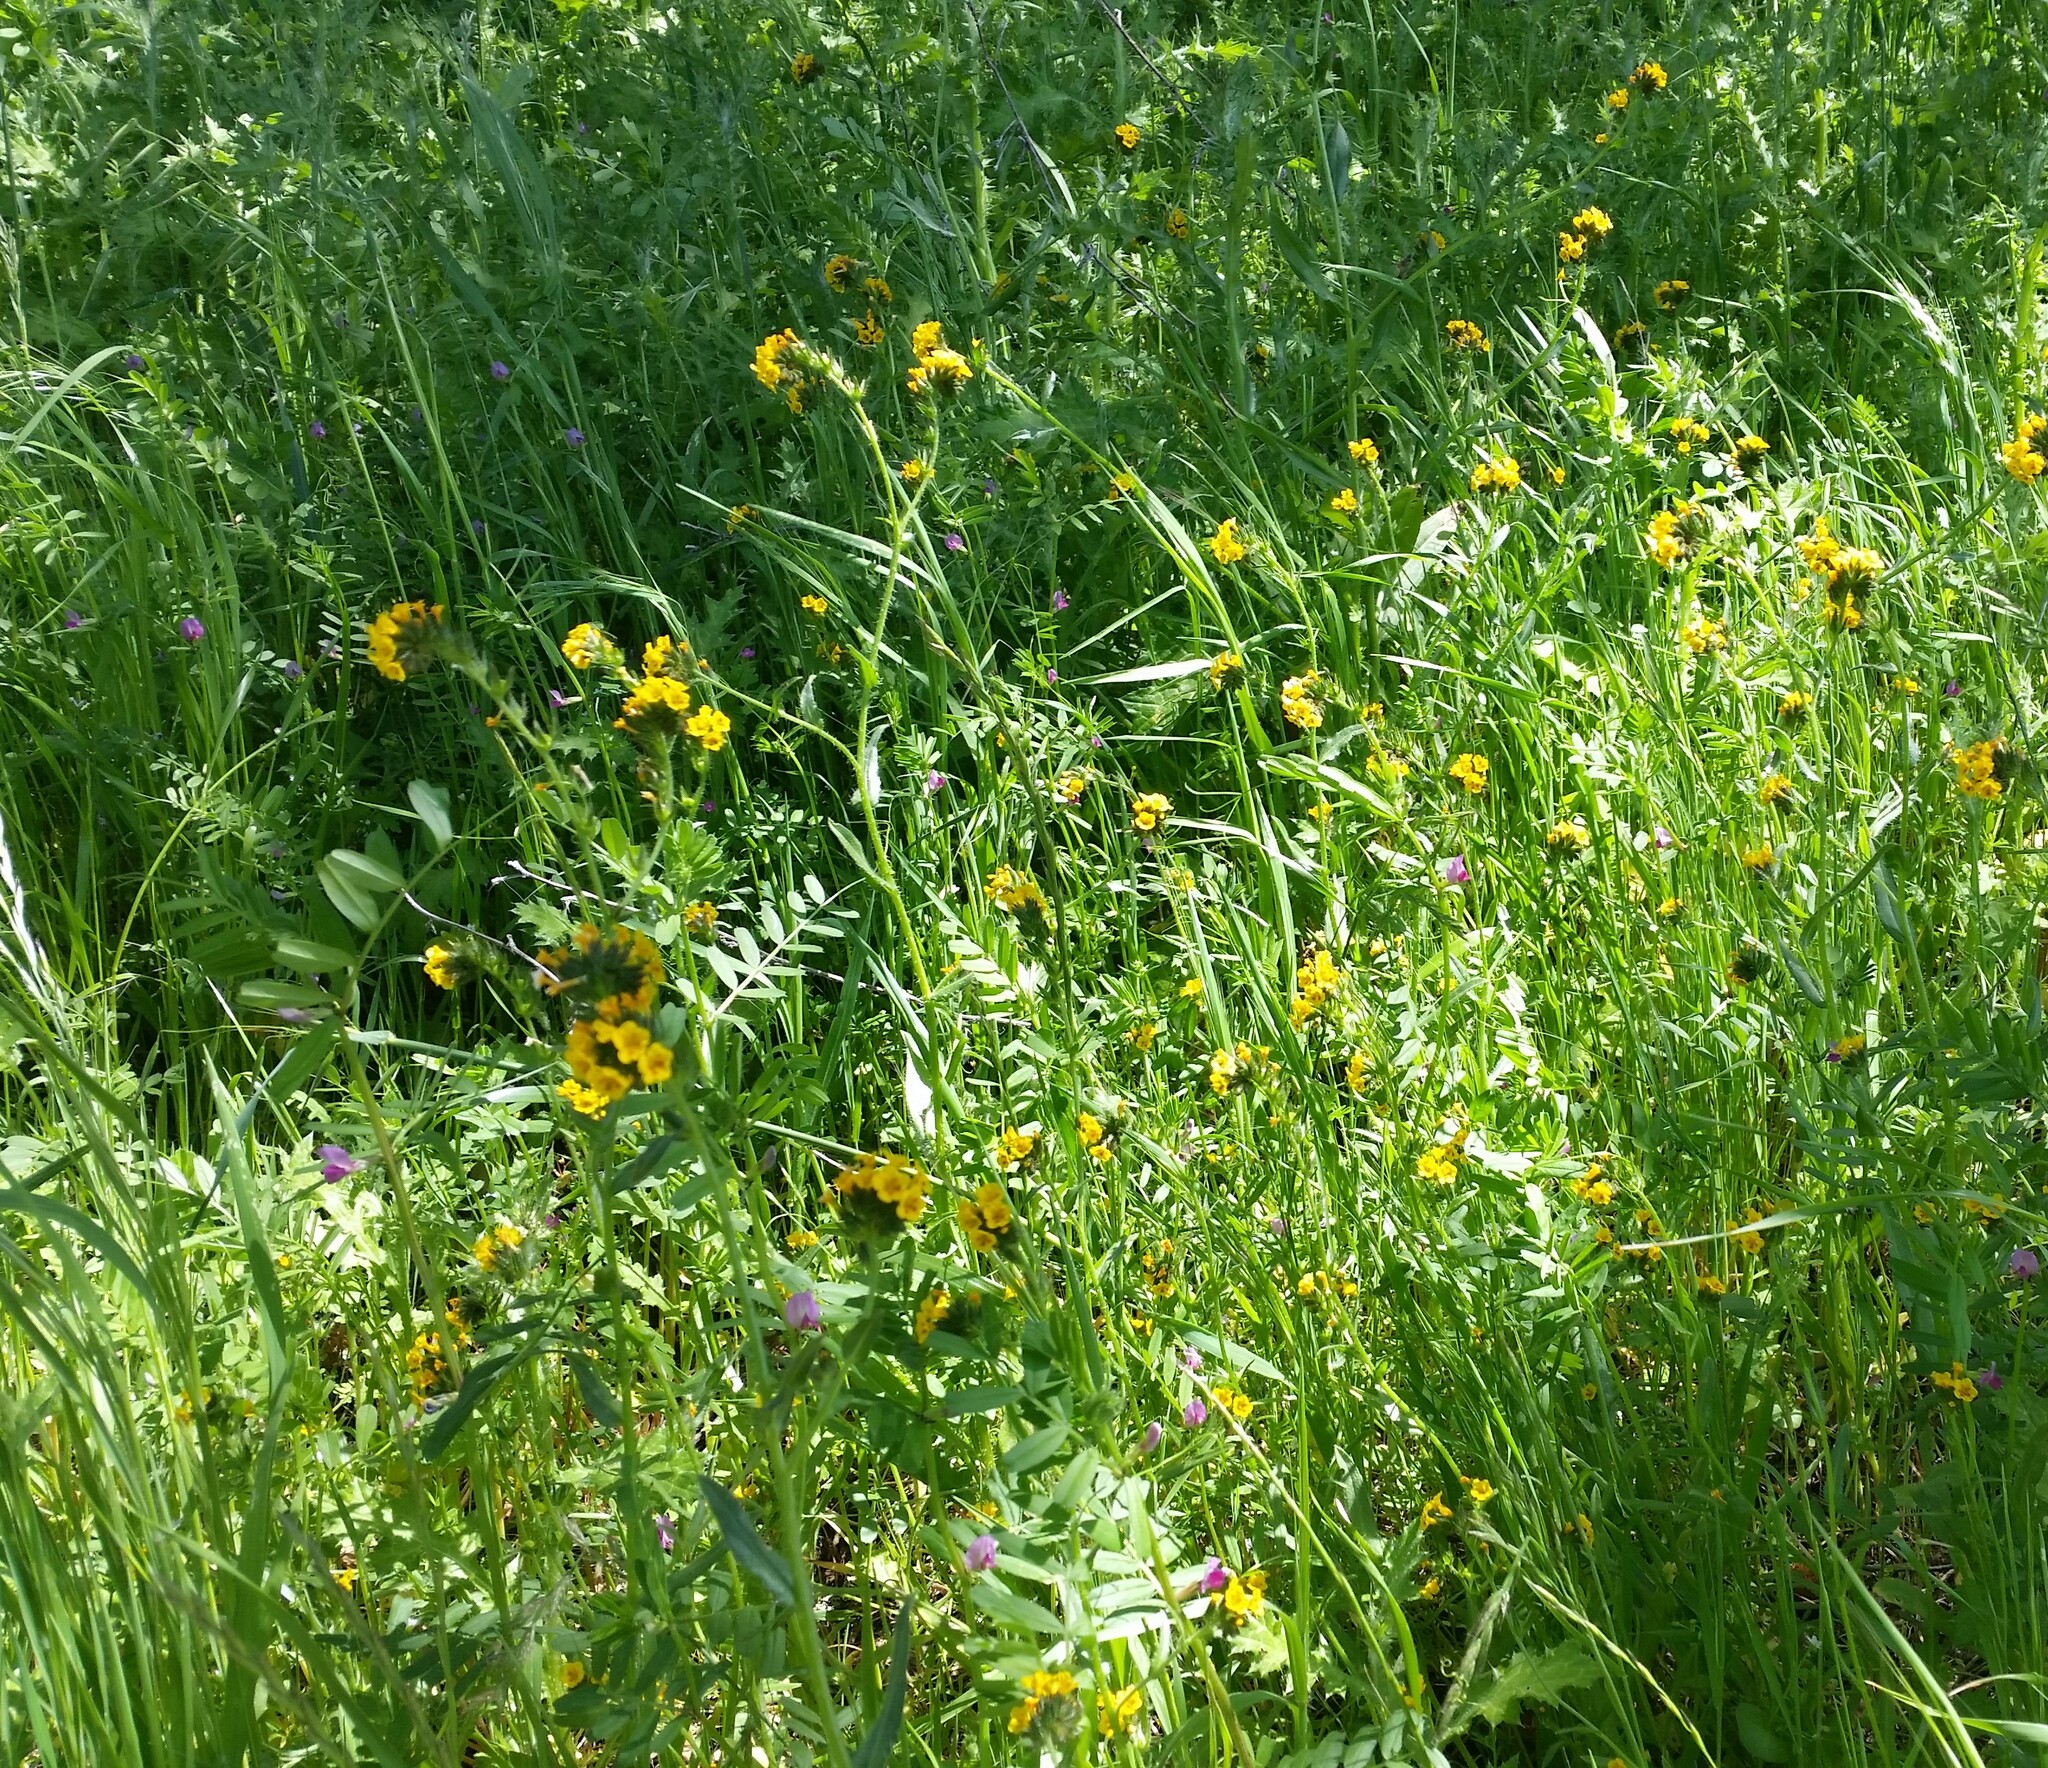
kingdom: Plantae
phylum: Tracheophyta
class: Magnoliopsida
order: Boraginales
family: Boraginaceae
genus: Amsinckia
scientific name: Amsinckia menziesii
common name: Menzies' fiddleneck
